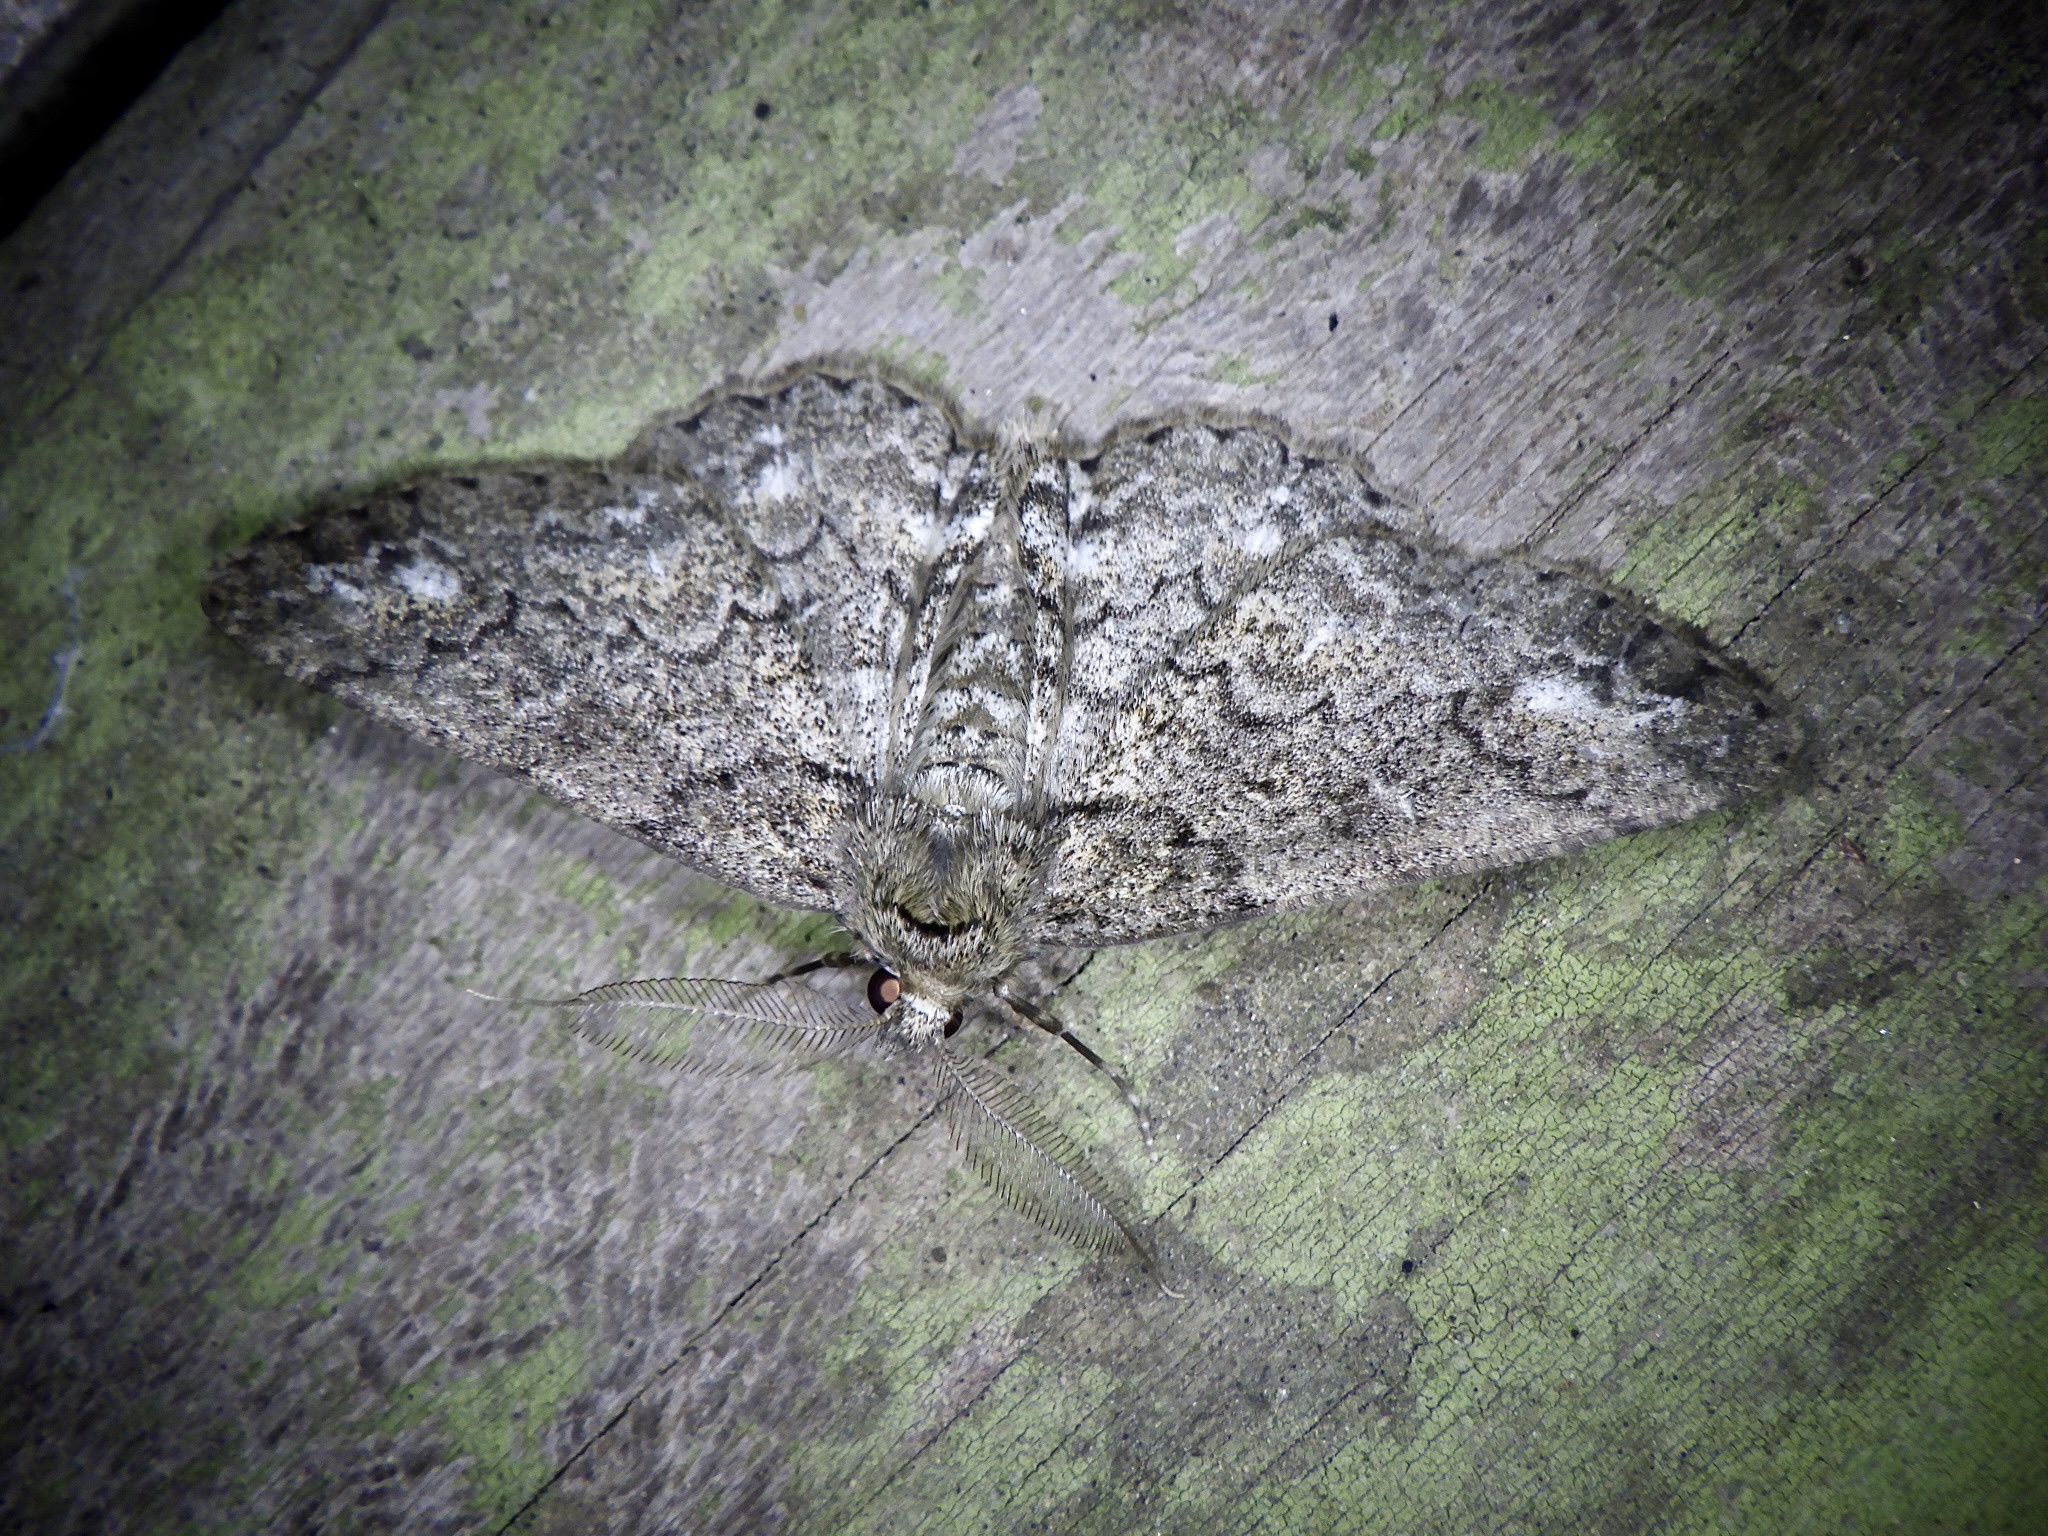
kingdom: Animalia
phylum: Arthropoda
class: Insecta
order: Lepidoptera
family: Geometridae
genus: Cleora
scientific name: Cleora leucophaea
